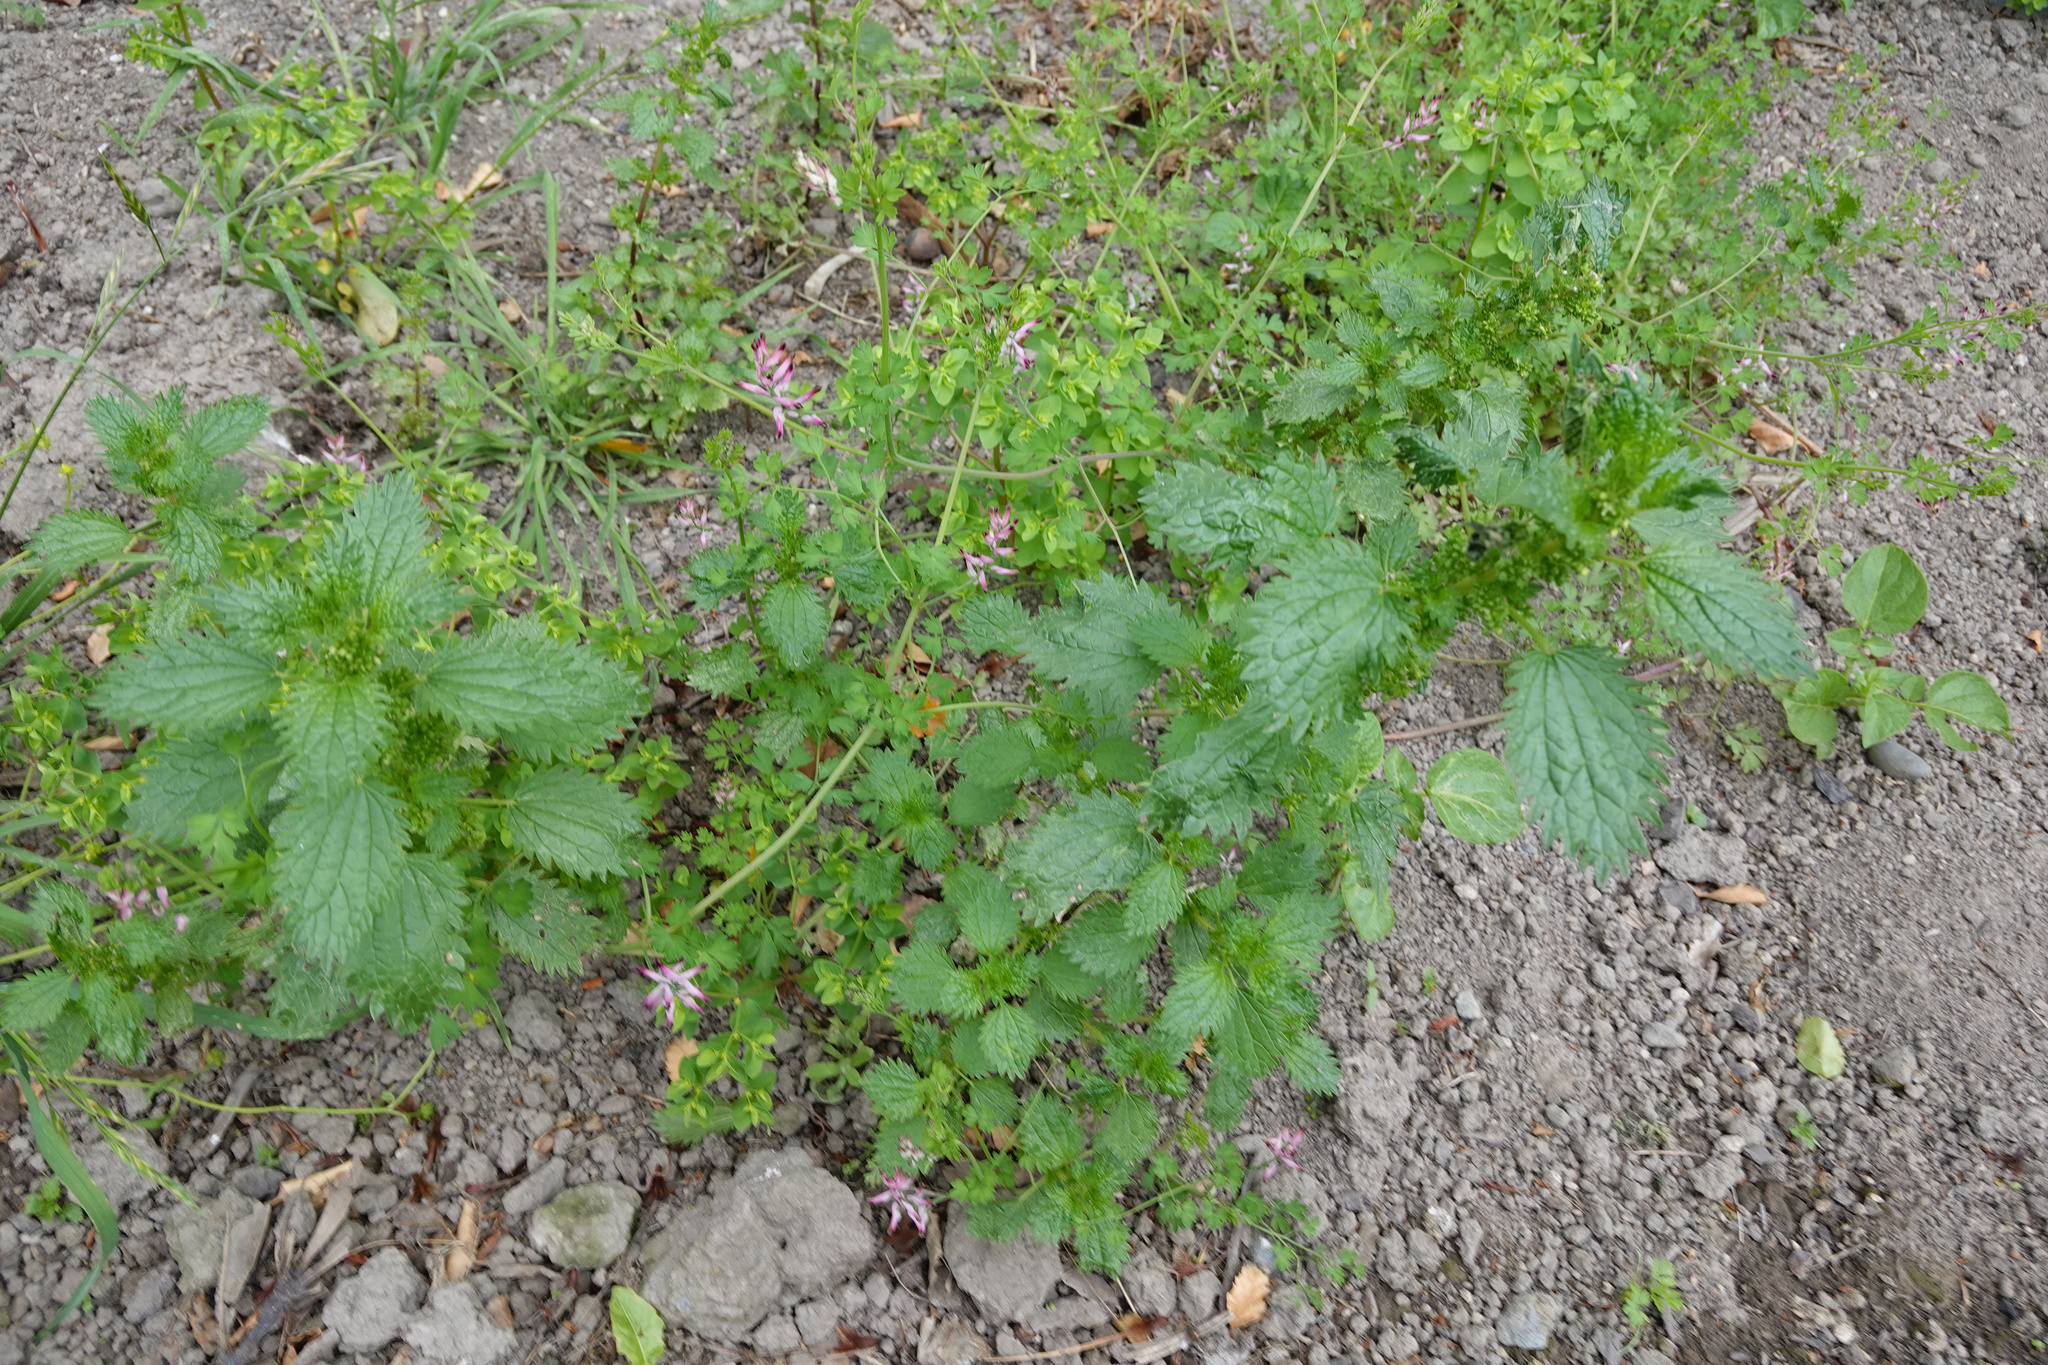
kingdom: Plantae
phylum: Tracheophyta
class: Magnoliopsida
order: Rosales
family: Urticaceae
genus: Urtica
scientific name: Urtica urens
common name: Dwarf nettle
